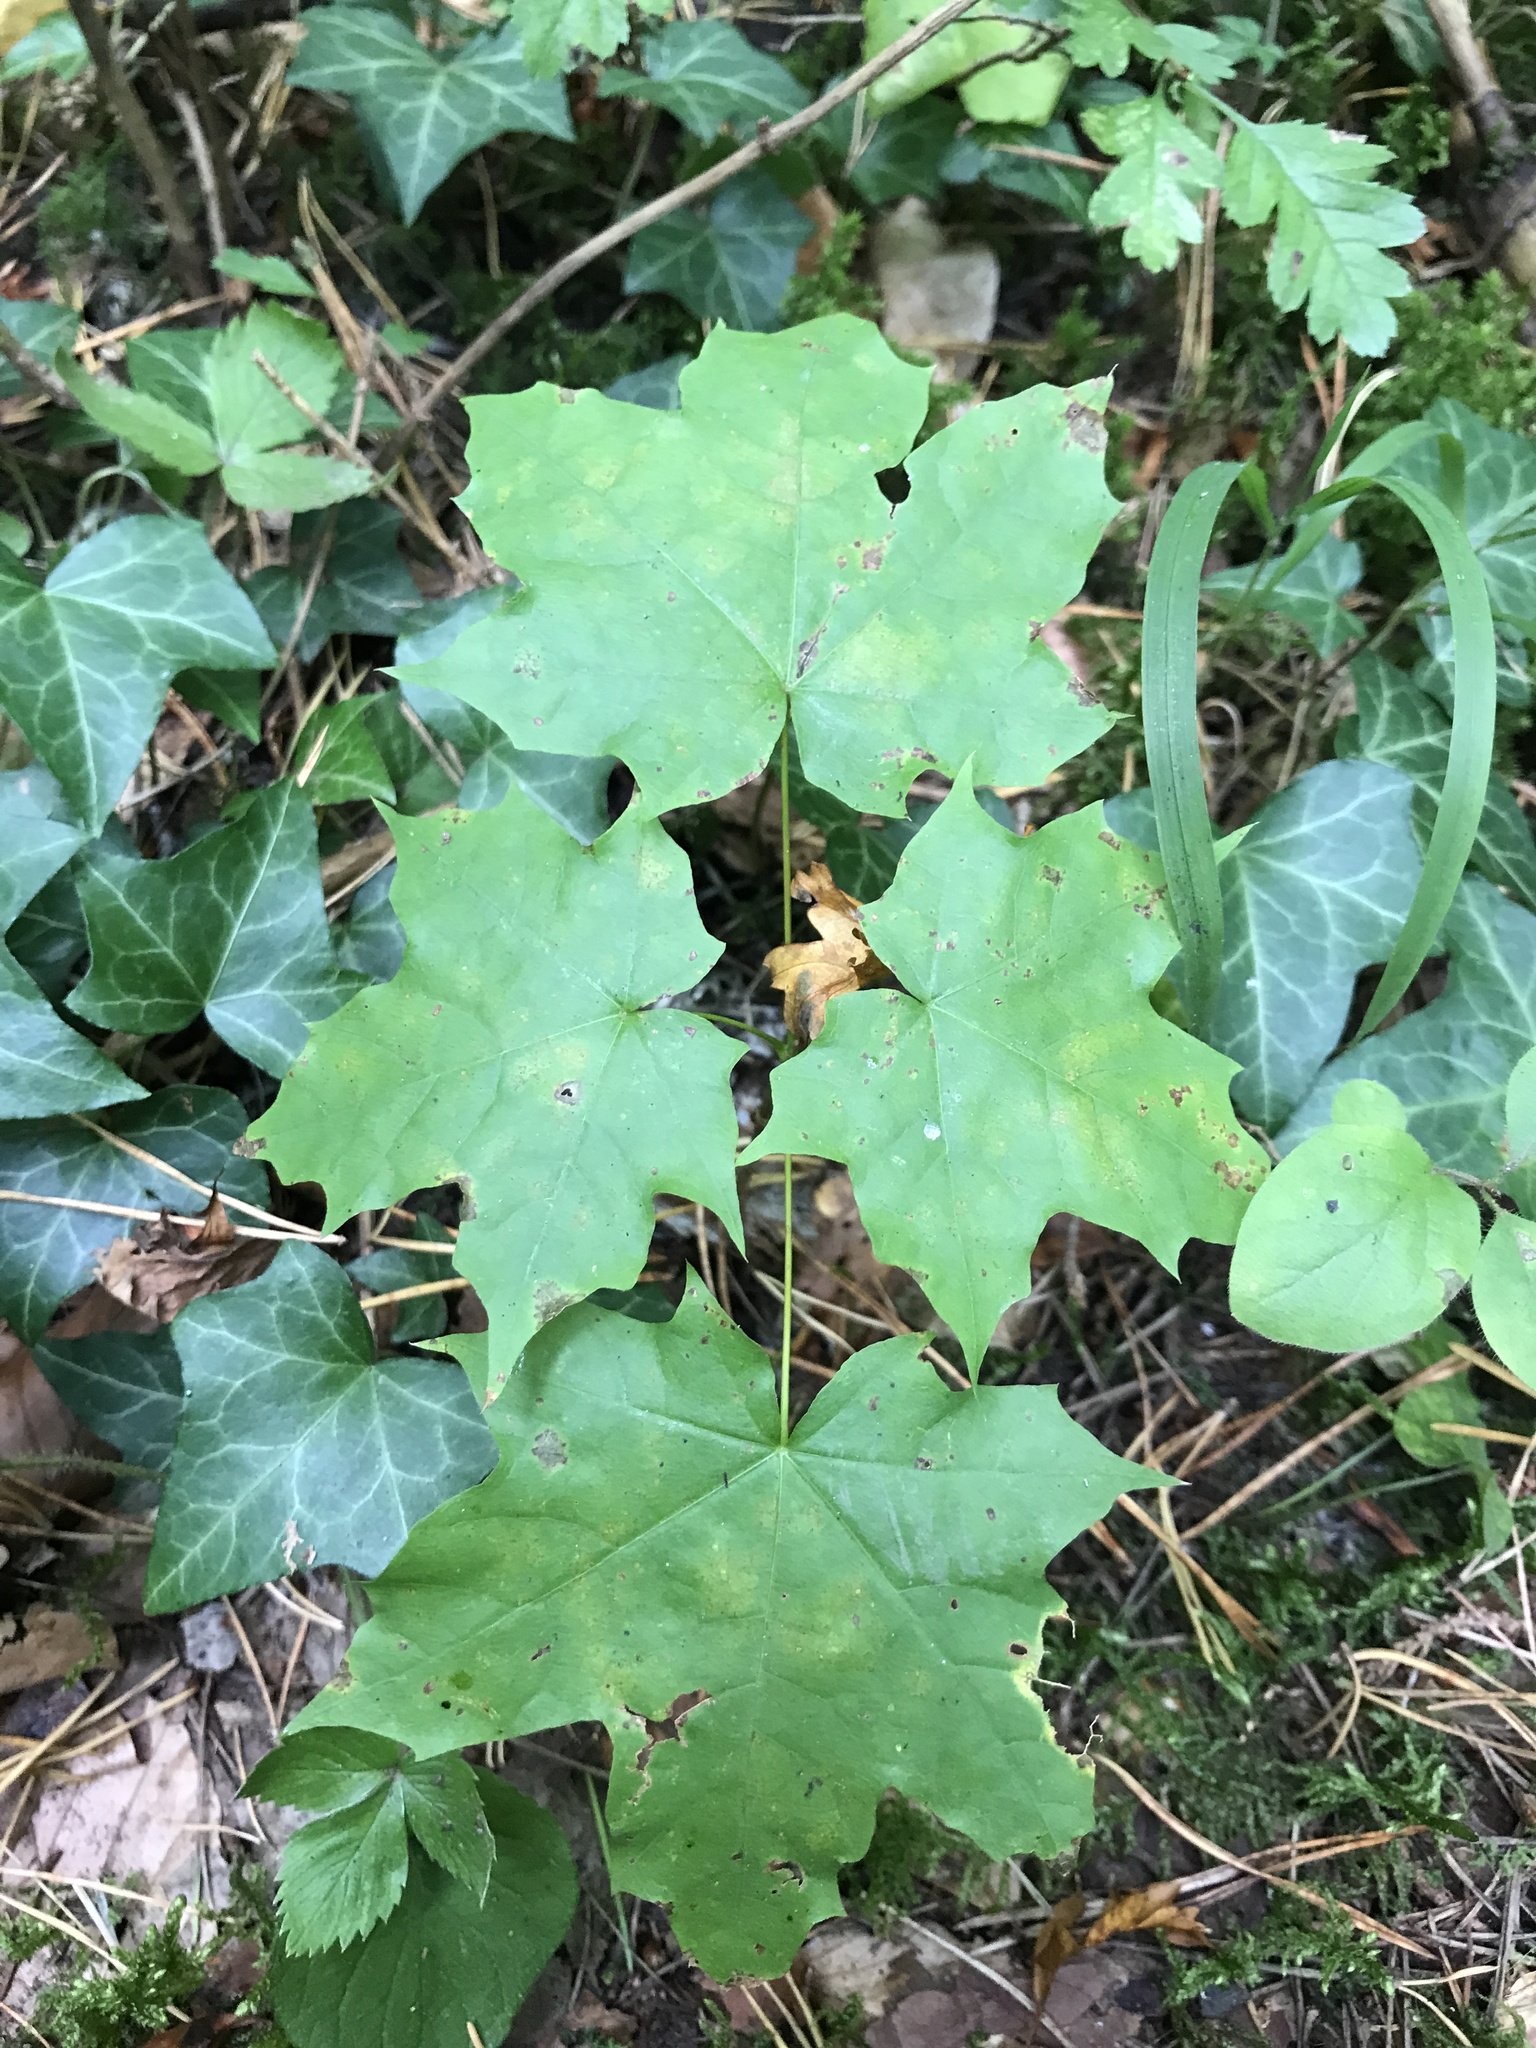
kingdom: Plantae
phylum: Tracheophyta
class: Magnoliopsida
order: Sapindales
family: Sapindaceae
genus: Acer
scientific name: Acer platanoides
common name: Norway maple
